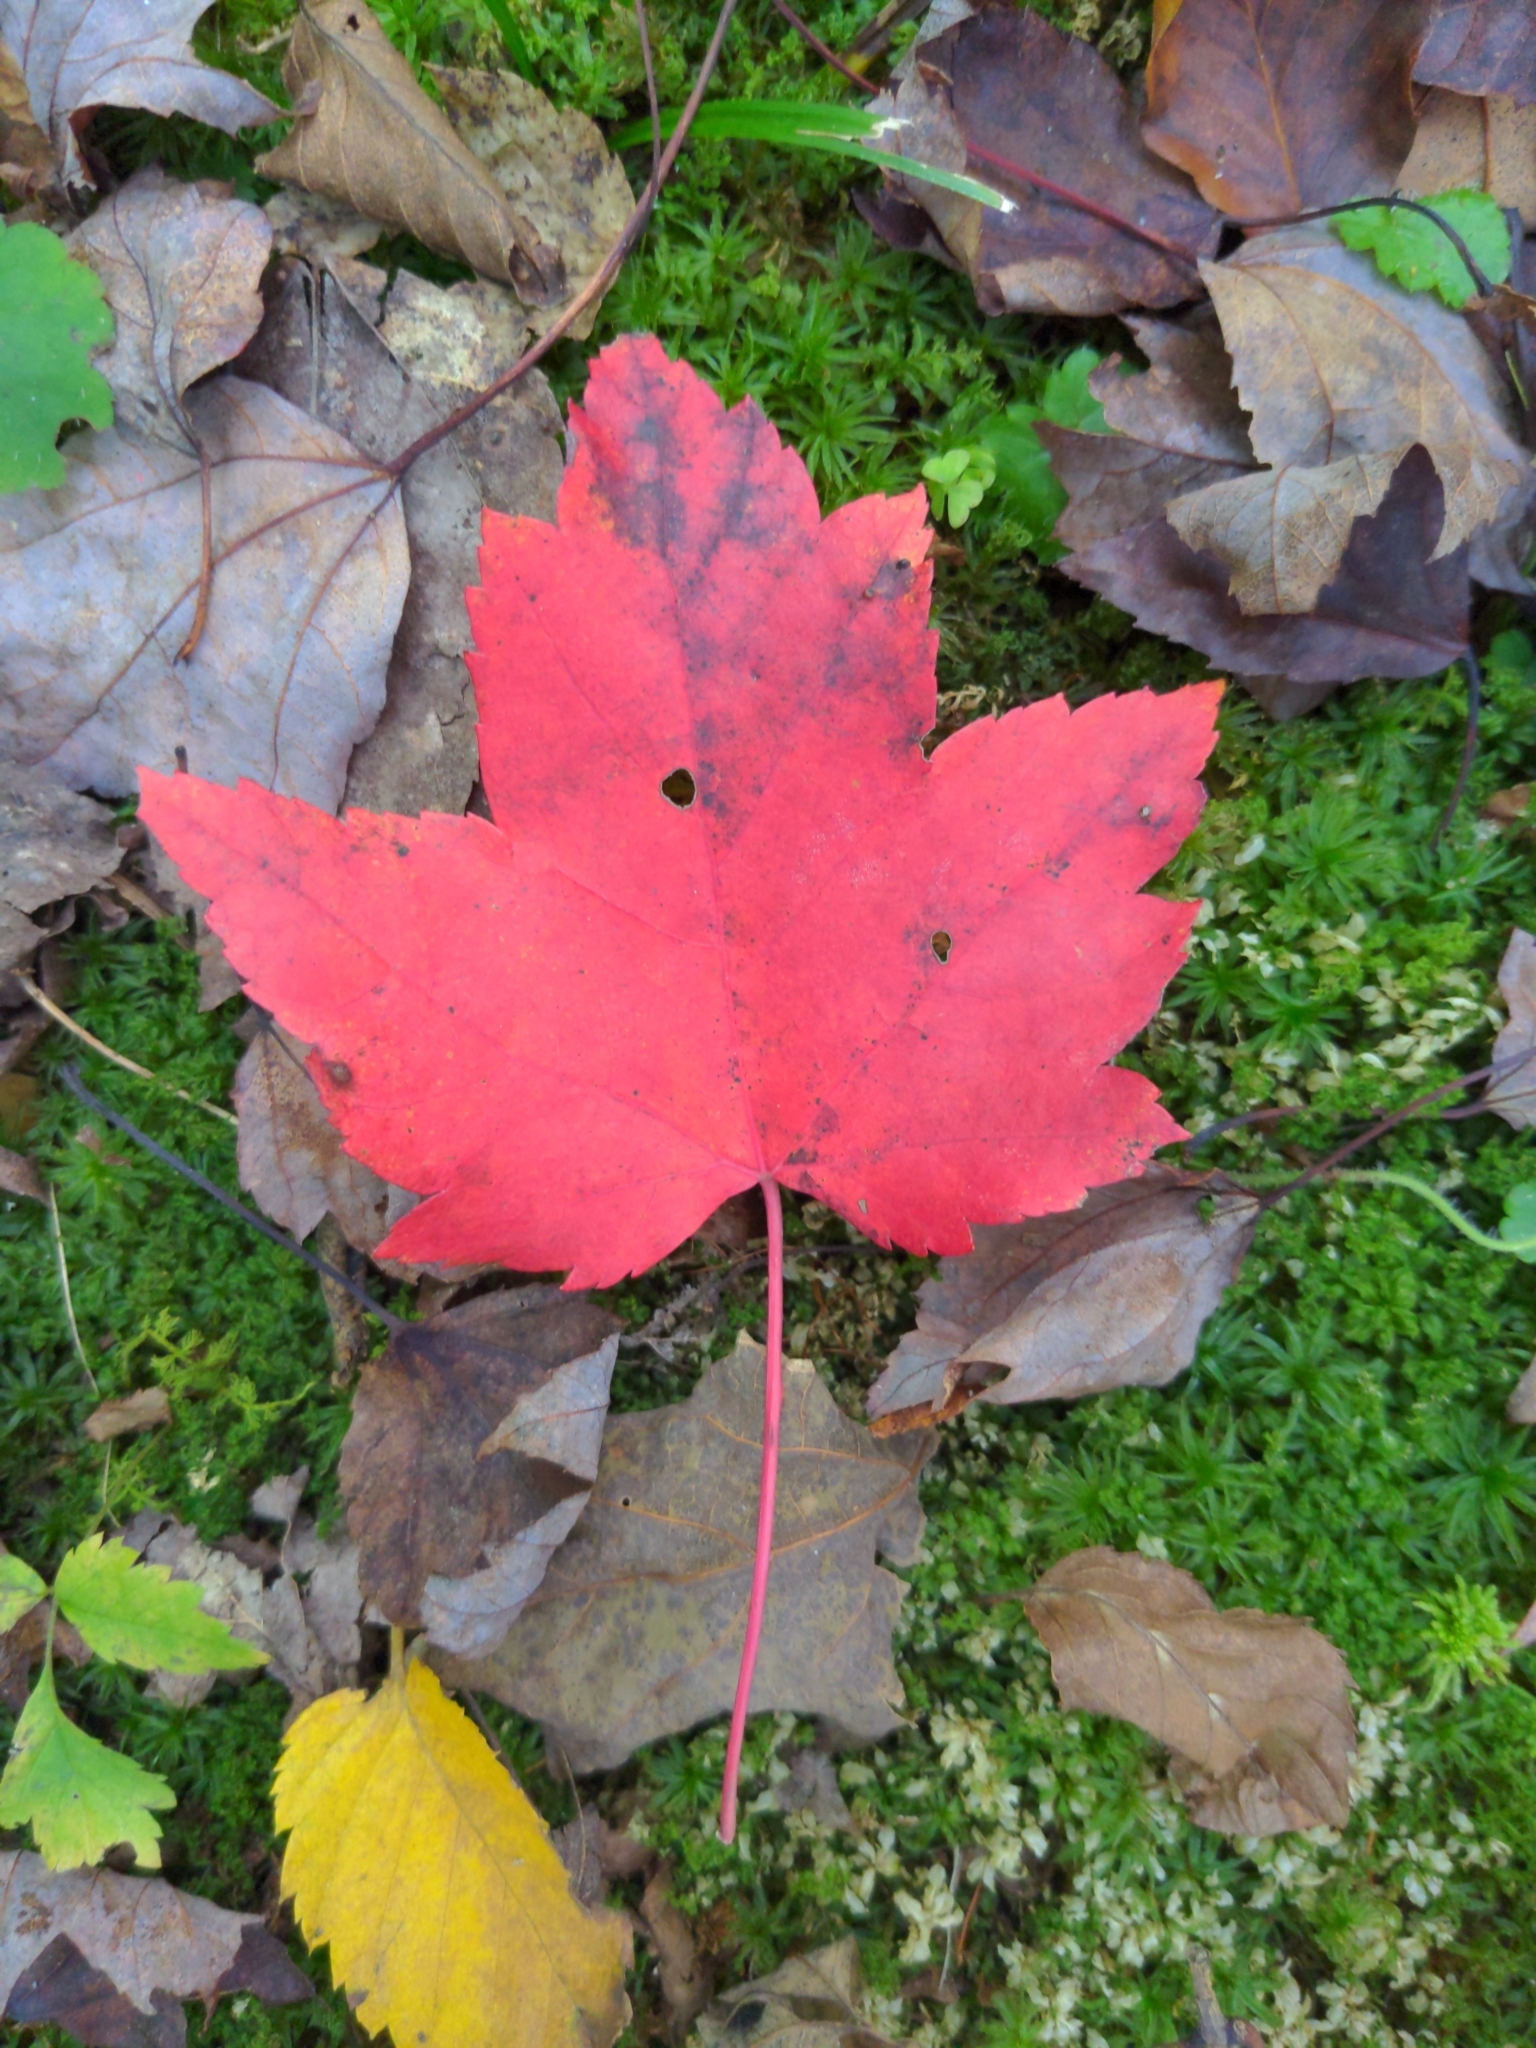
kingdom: Plantae
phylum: Tracheophyta
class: Magnoliopsida
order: Sapindales
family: Sapindaceae
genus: Acer
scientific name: Acer rubrum
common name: Red maple
